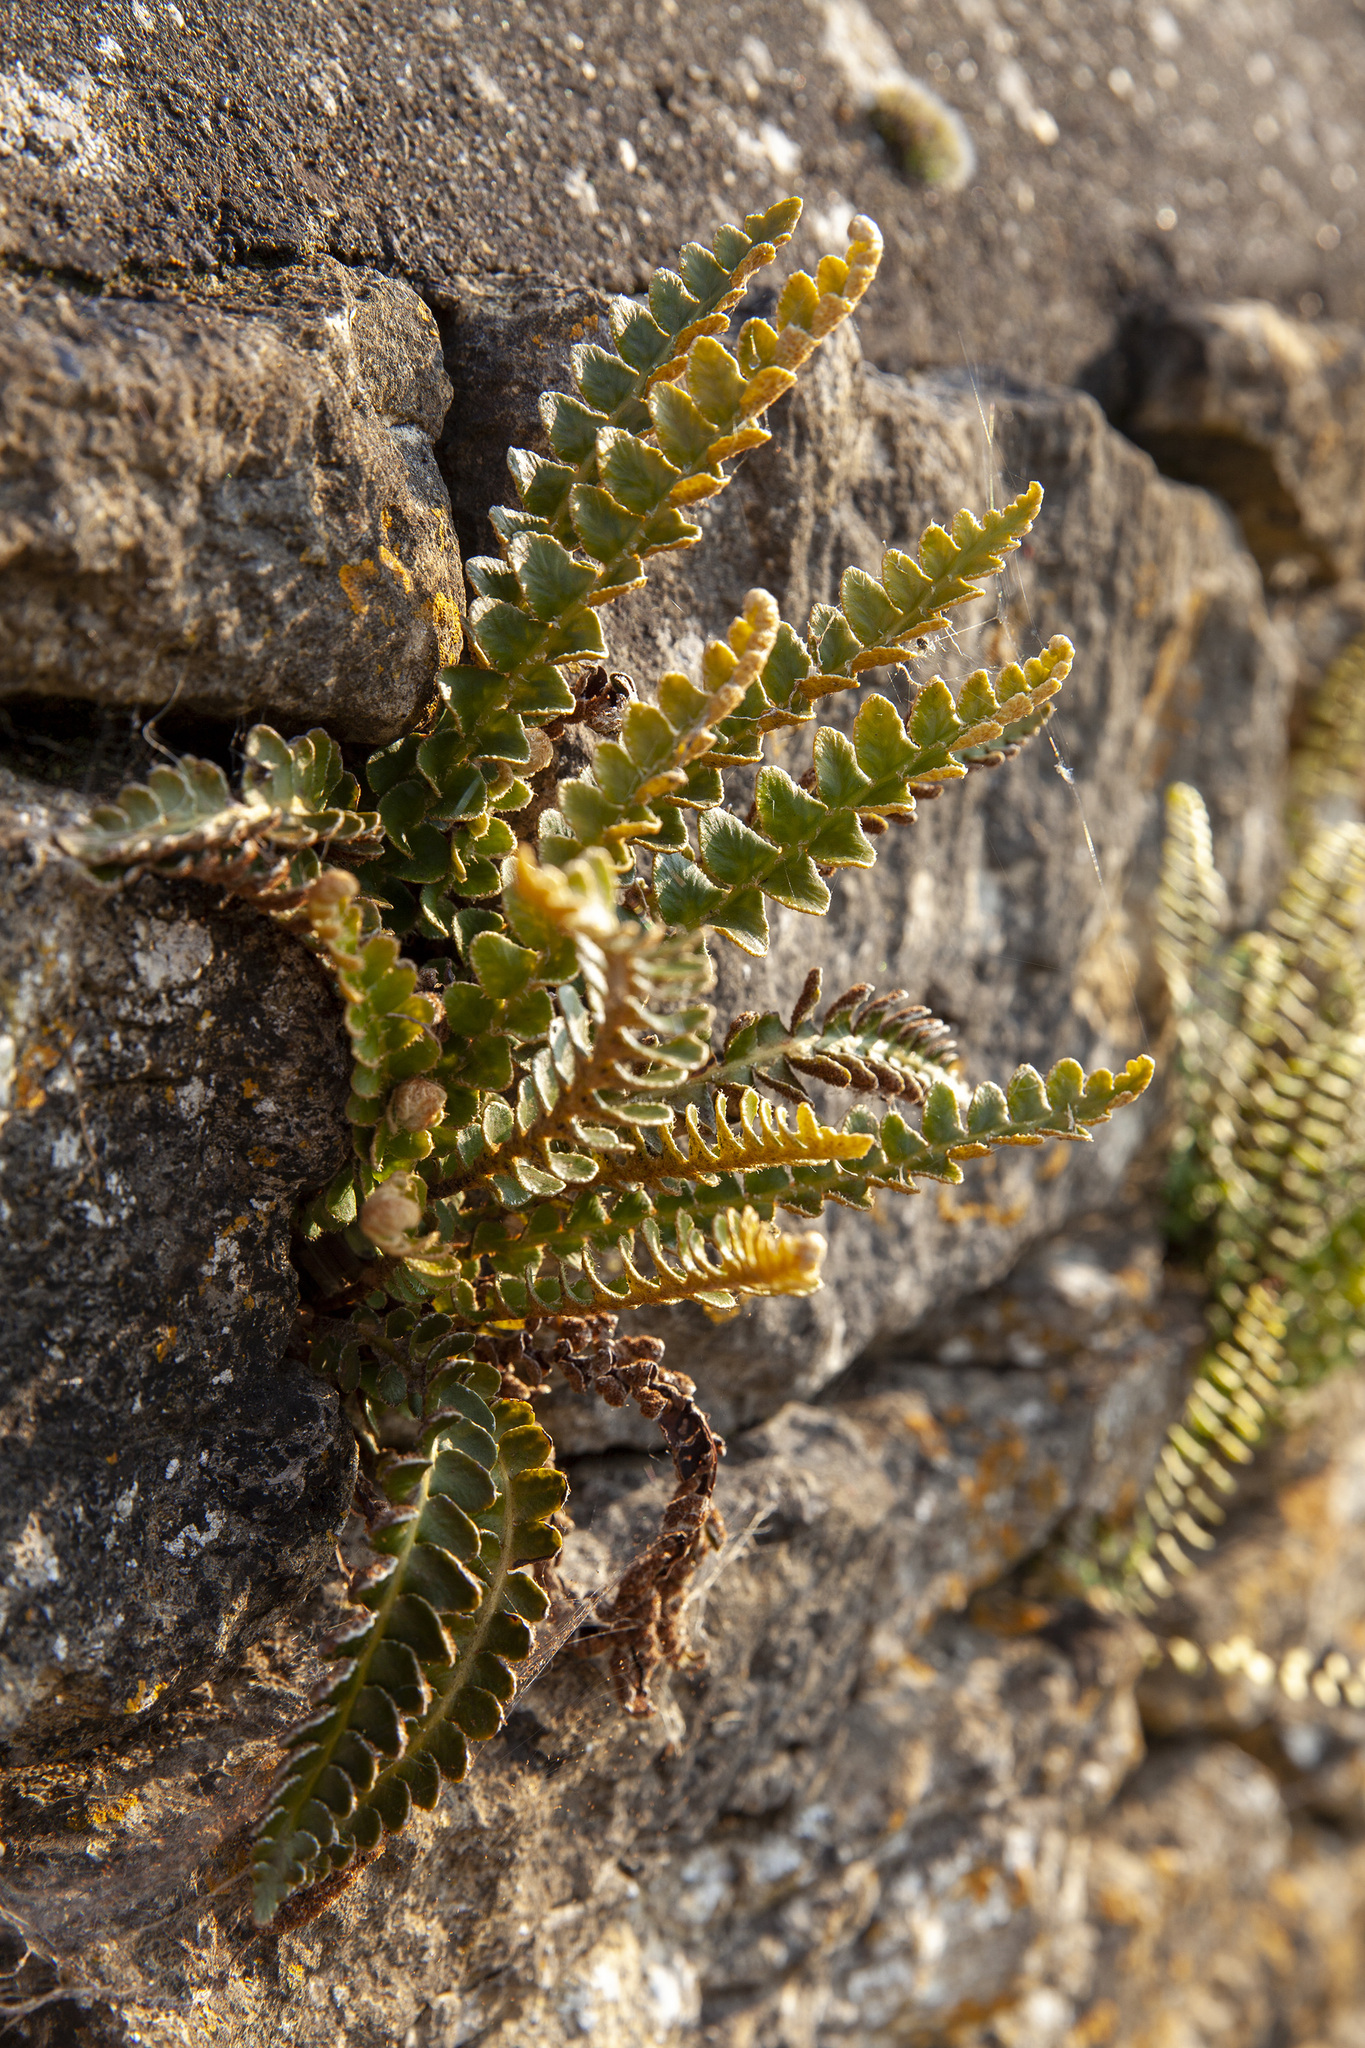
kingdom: Plantae
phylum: Tracheophyta
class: Polypodiopsida
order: Polypodiales
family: Aspleniaceae
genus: Asplenium
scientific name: Asplenium ceterach
